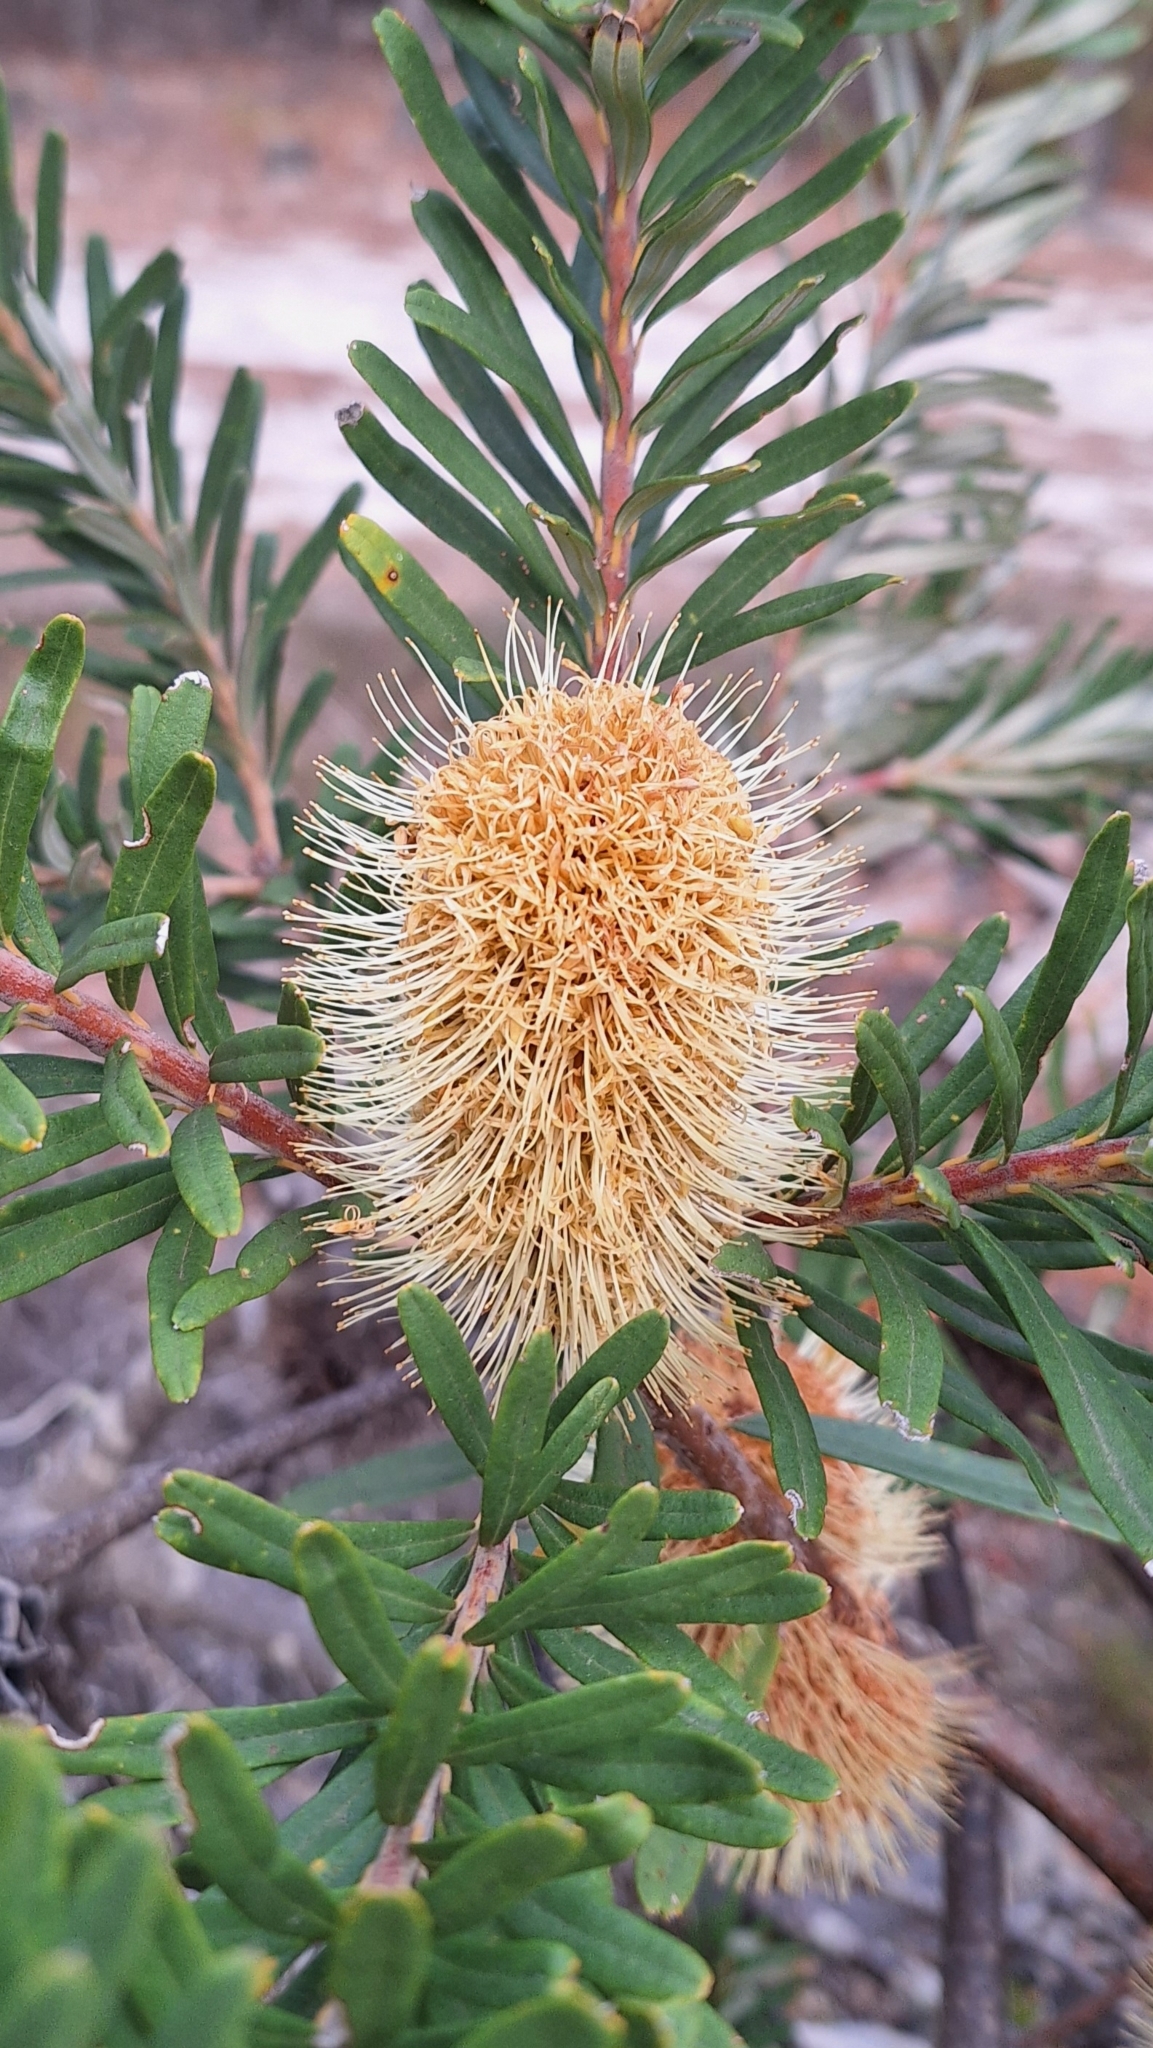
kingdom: Plantae
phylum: Tracheophyta
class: Magnoliopsida
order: Proteales
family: Proteaceae
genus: Banksia
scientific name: Banksia marginata
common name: Silver banksia
